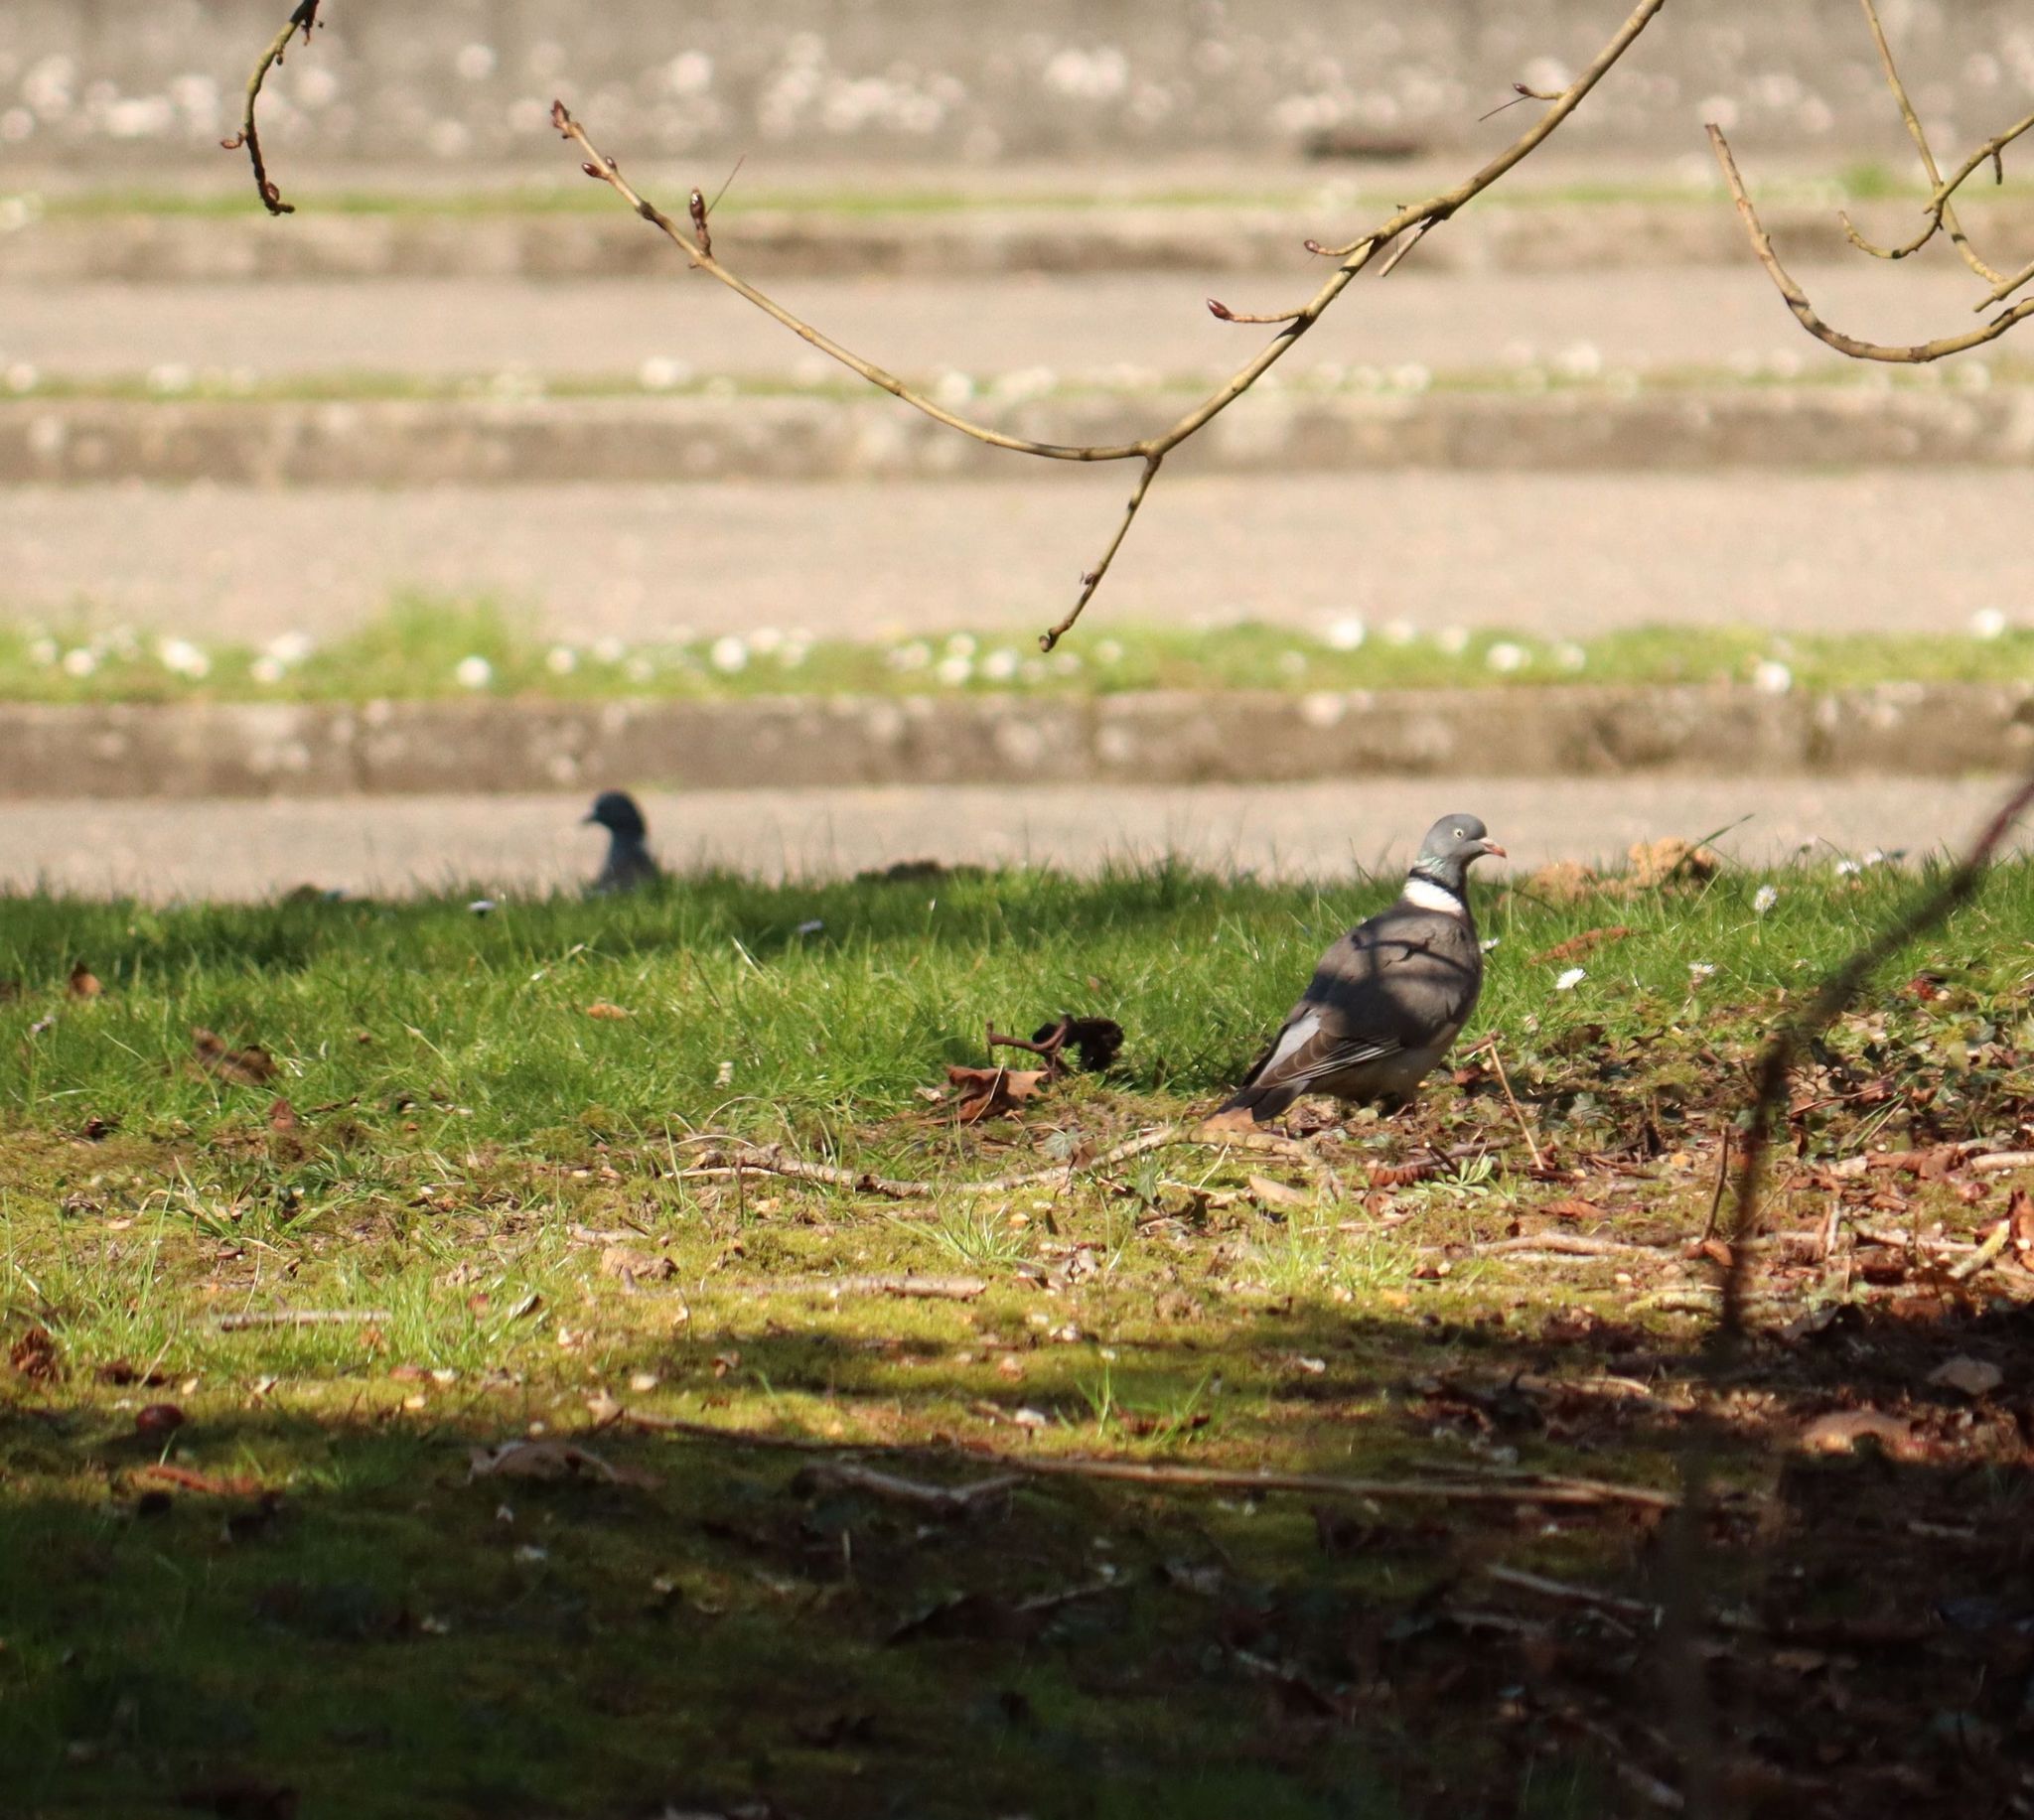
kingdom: Animalia
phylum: Chordata
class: Aves
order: Columbiformes
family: Columbidae
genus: Columba
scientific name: Columba palumbus
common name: Common wood pigeon
